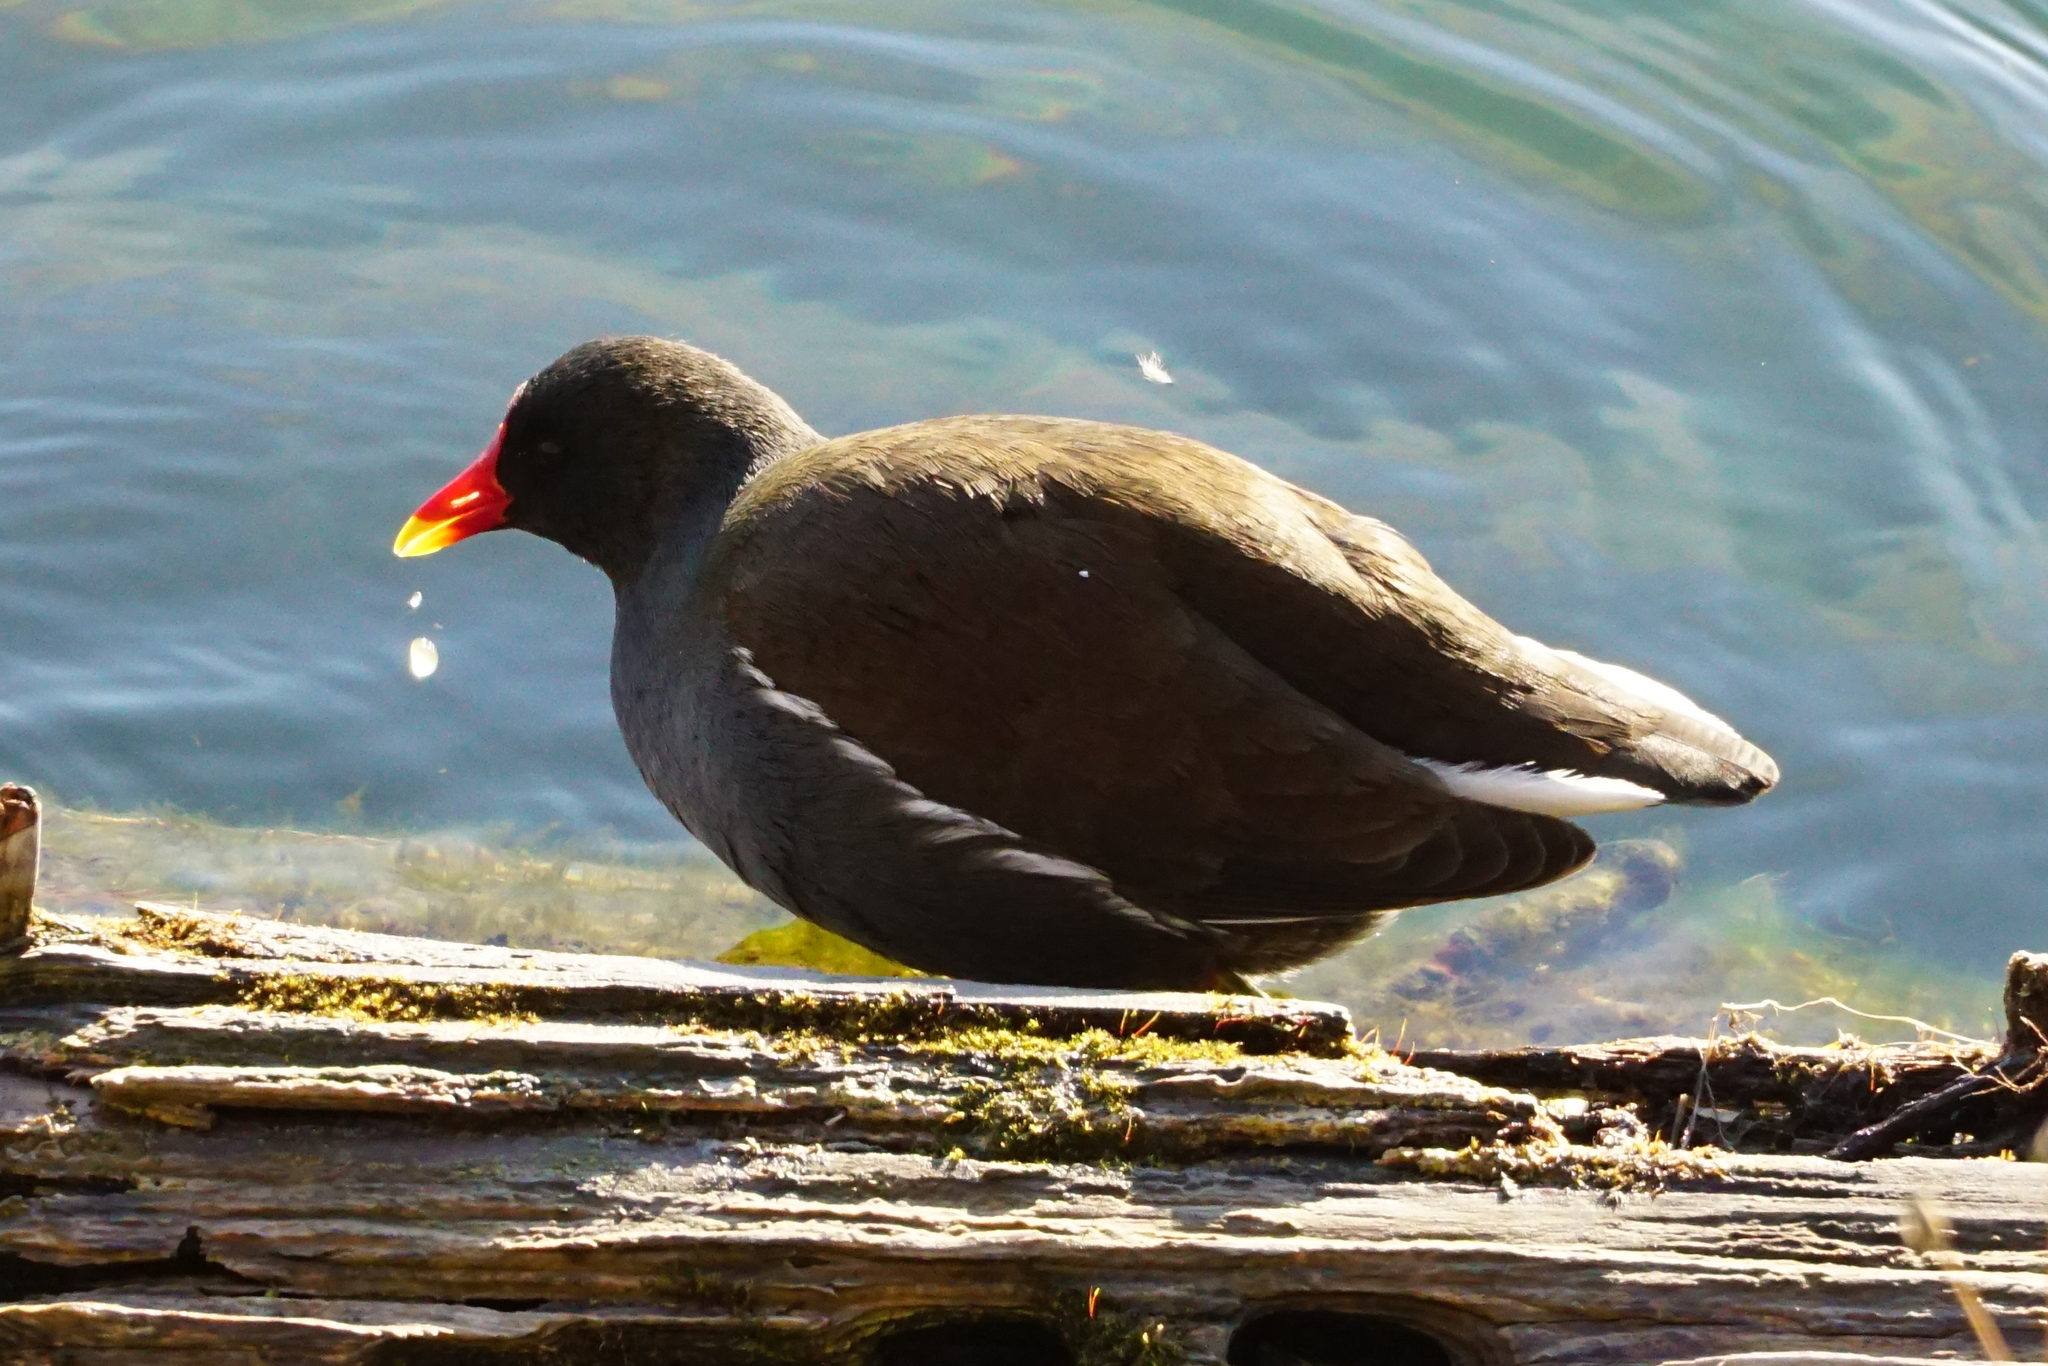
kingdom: Animalia
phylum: Chordata
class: Aves
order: Gruiformes
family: Rallidae
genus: Gallinula
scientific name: Gallinula chloropus
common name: Common moorhen
